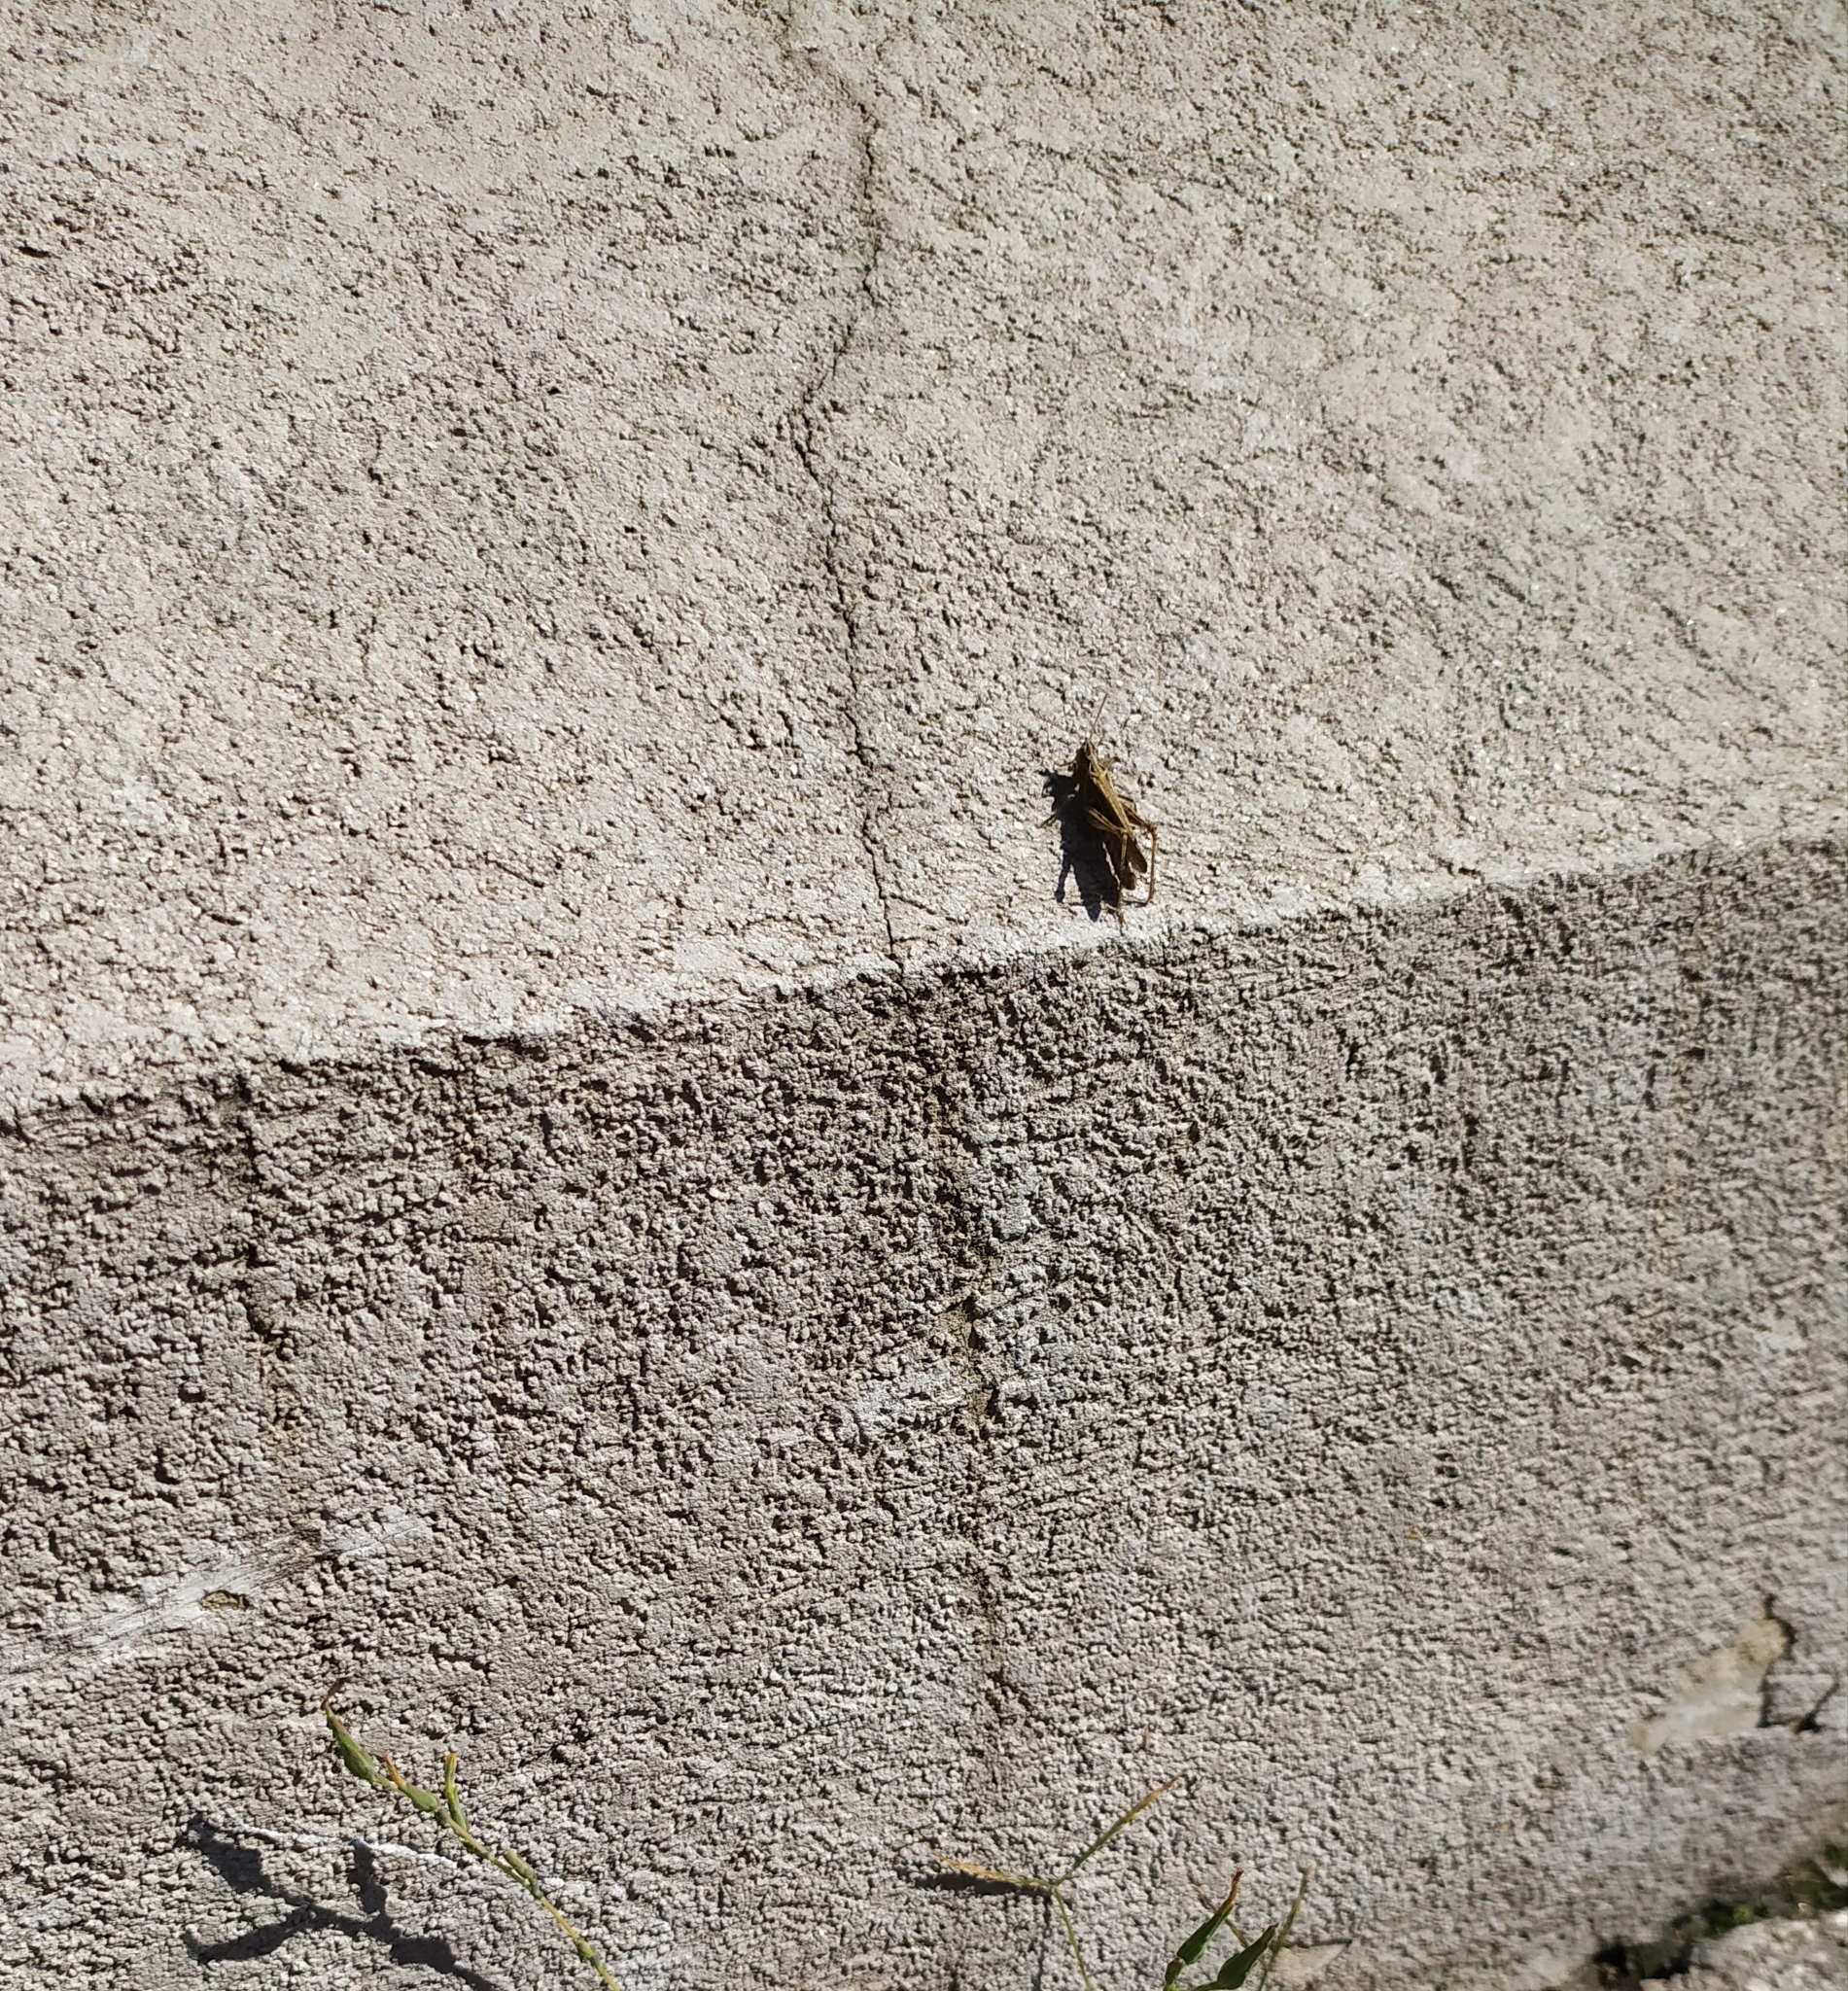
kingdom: Animalia
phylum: Arthropoda
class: Insecta
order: Orthoptera
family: Acrididae
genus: Chorthippus
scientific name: Chorthippus brunneus
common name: Field grasshopper
